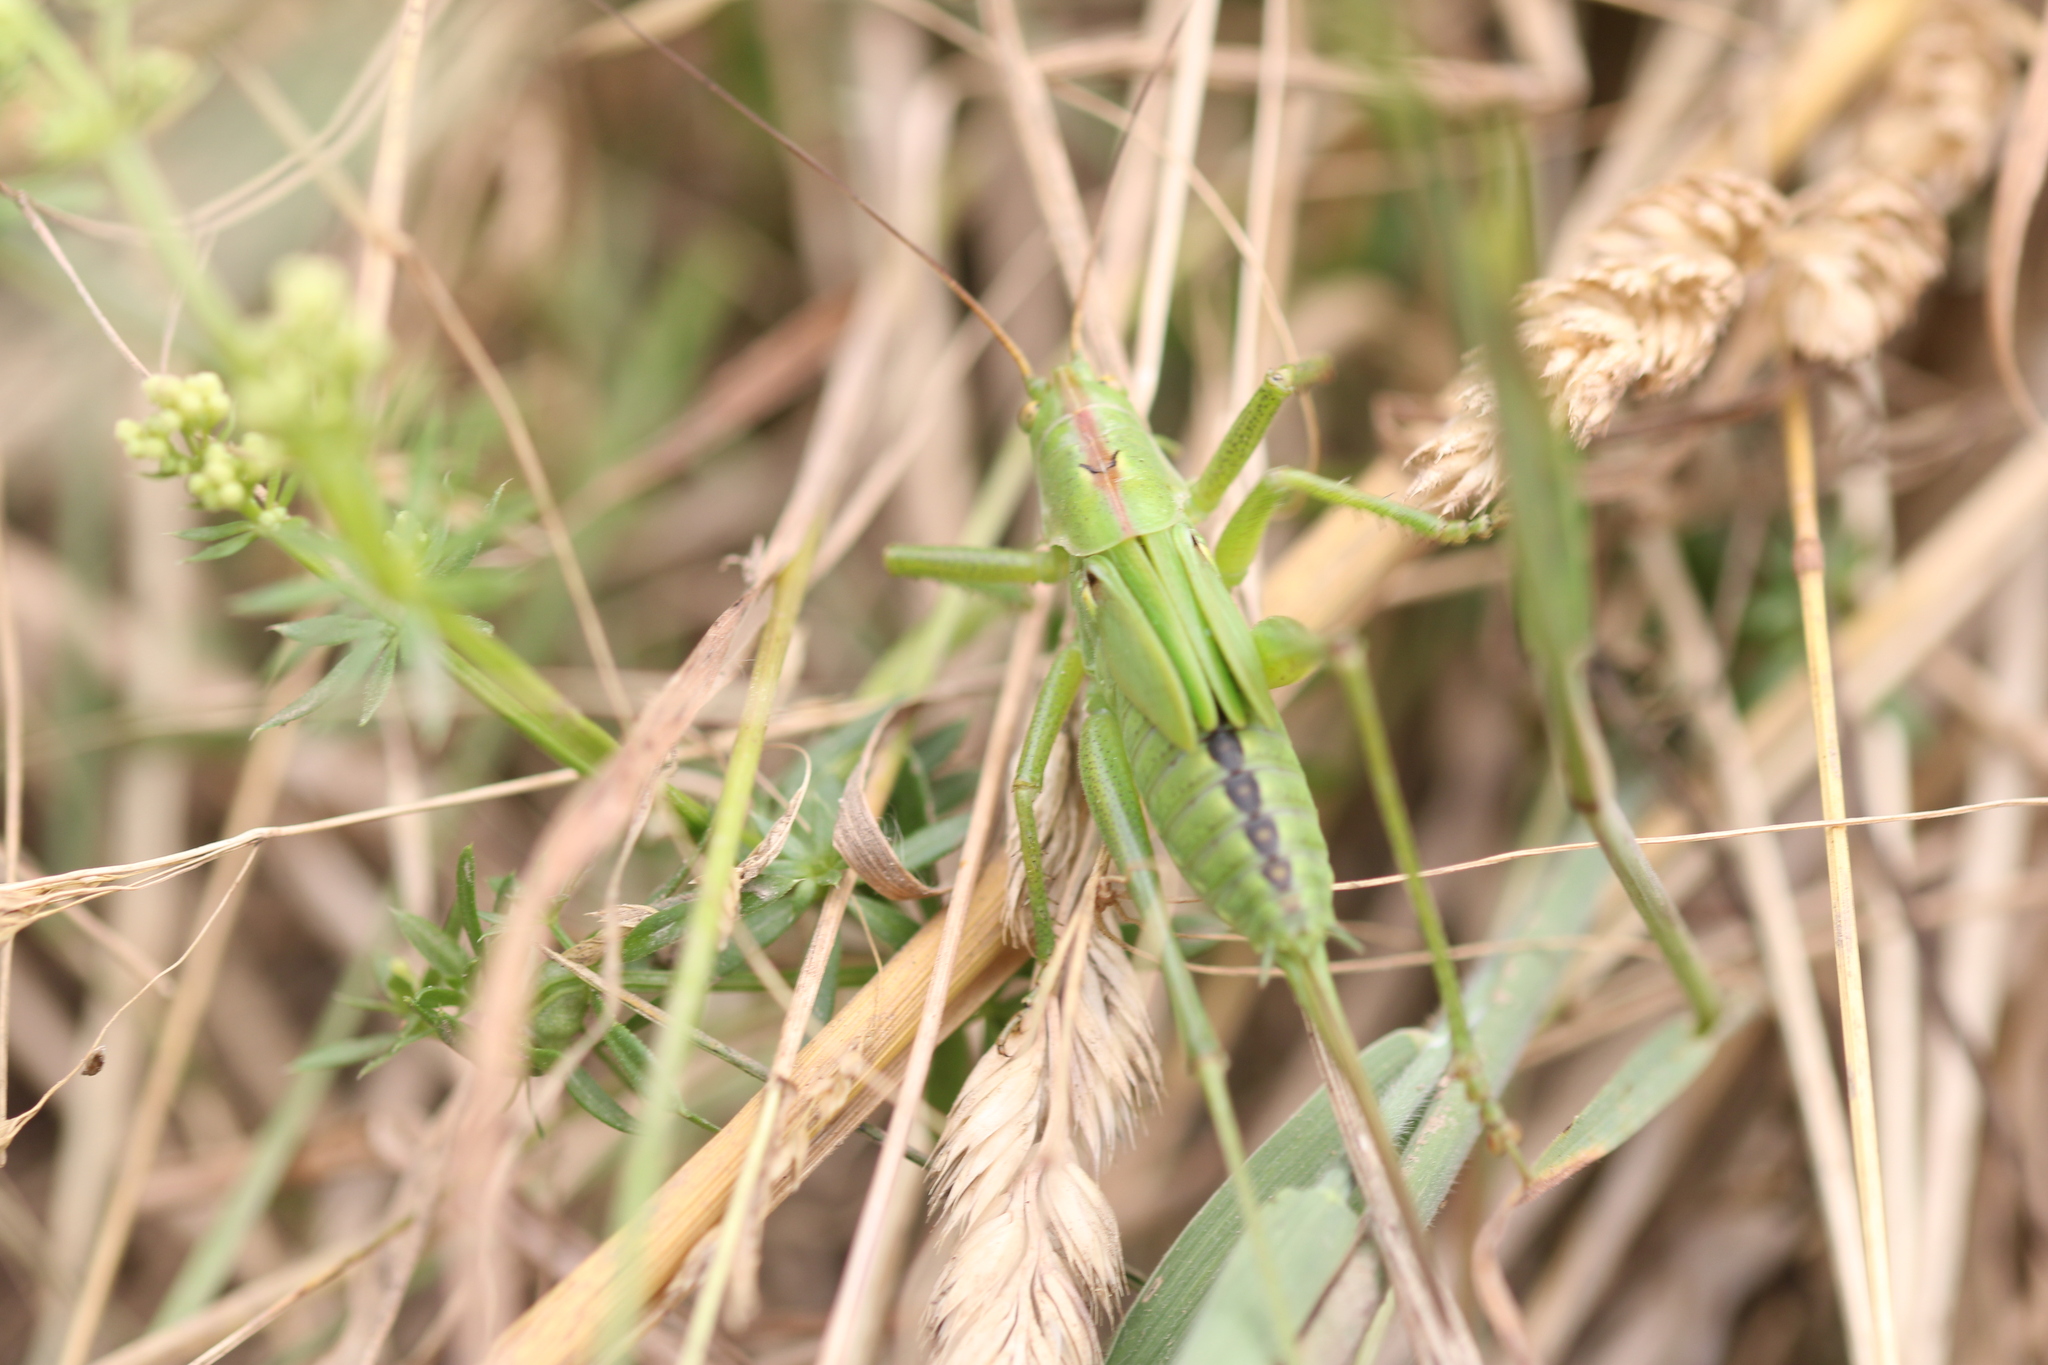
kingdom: Animalia
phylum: Arthropoda
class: Insecta
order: Orthoptera
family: Tettigoniidae
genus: Tettigonia
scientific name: Tettigonia viridissima
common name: Great green bush-cricket
